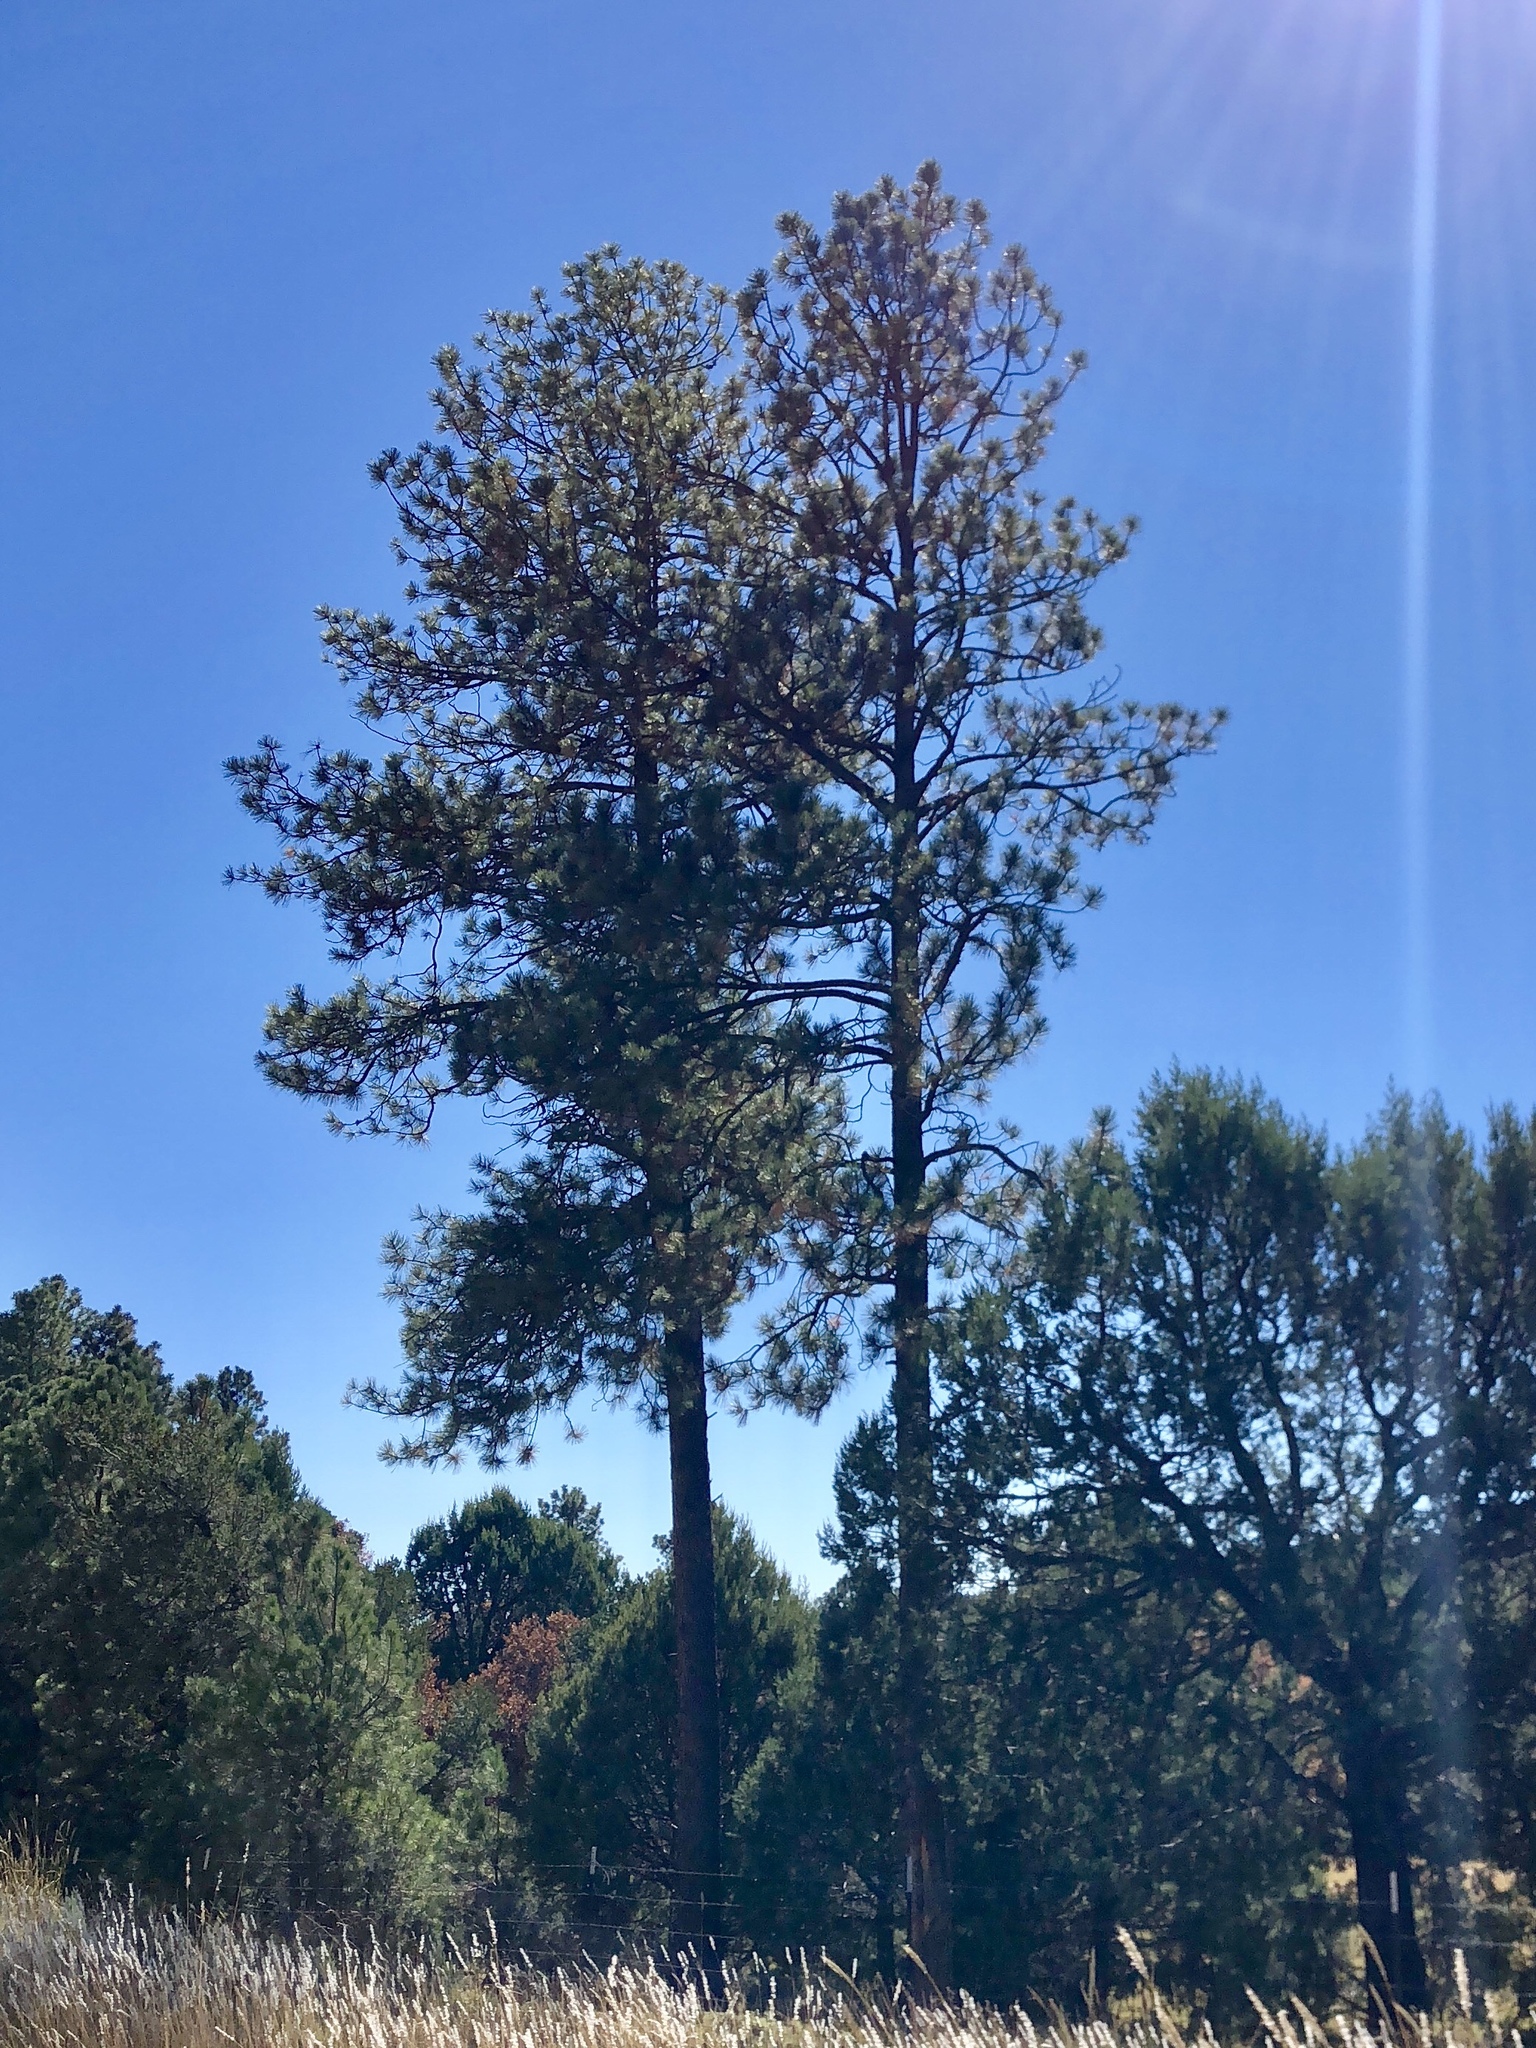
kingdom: Plantae
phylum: Tracheophyta
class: Pinopsida
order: Pinales
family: Pinaceae
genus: Pinus
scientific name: Pinus ponderosa
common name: Western yellow-pine
